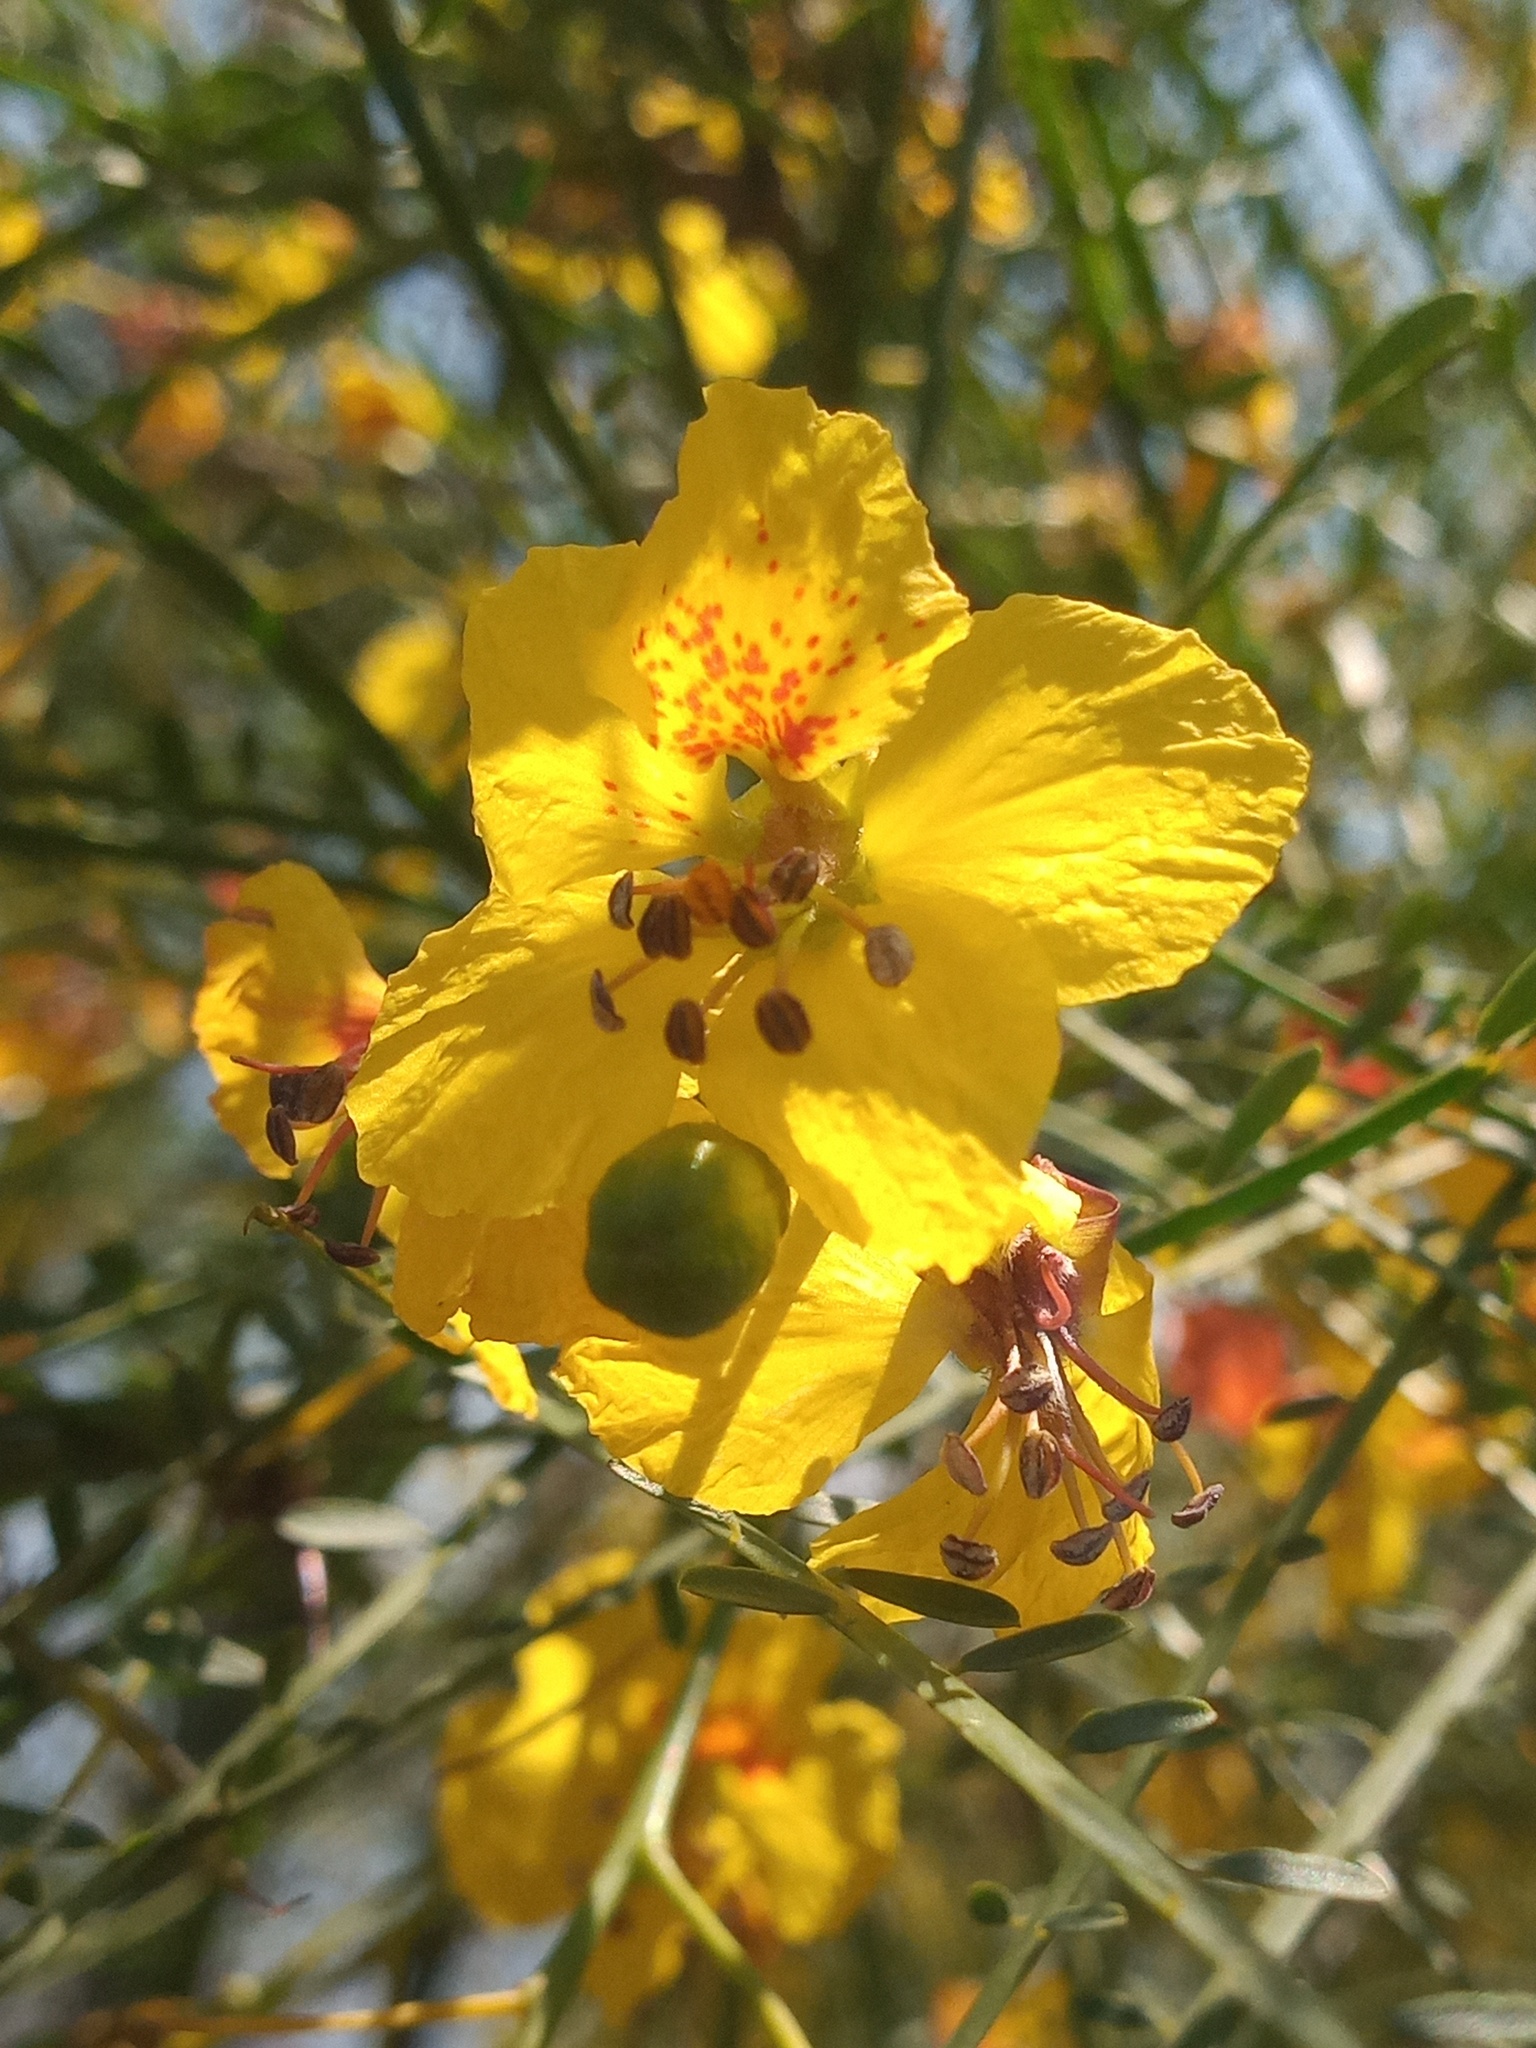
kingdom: Plantae
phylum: Tracheophyta
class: Magnoliopsida
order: Fabales
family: Fabaceae
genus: Parkinsonia
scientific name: Parkinsonia aculeata
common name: Jerusalem thorn
